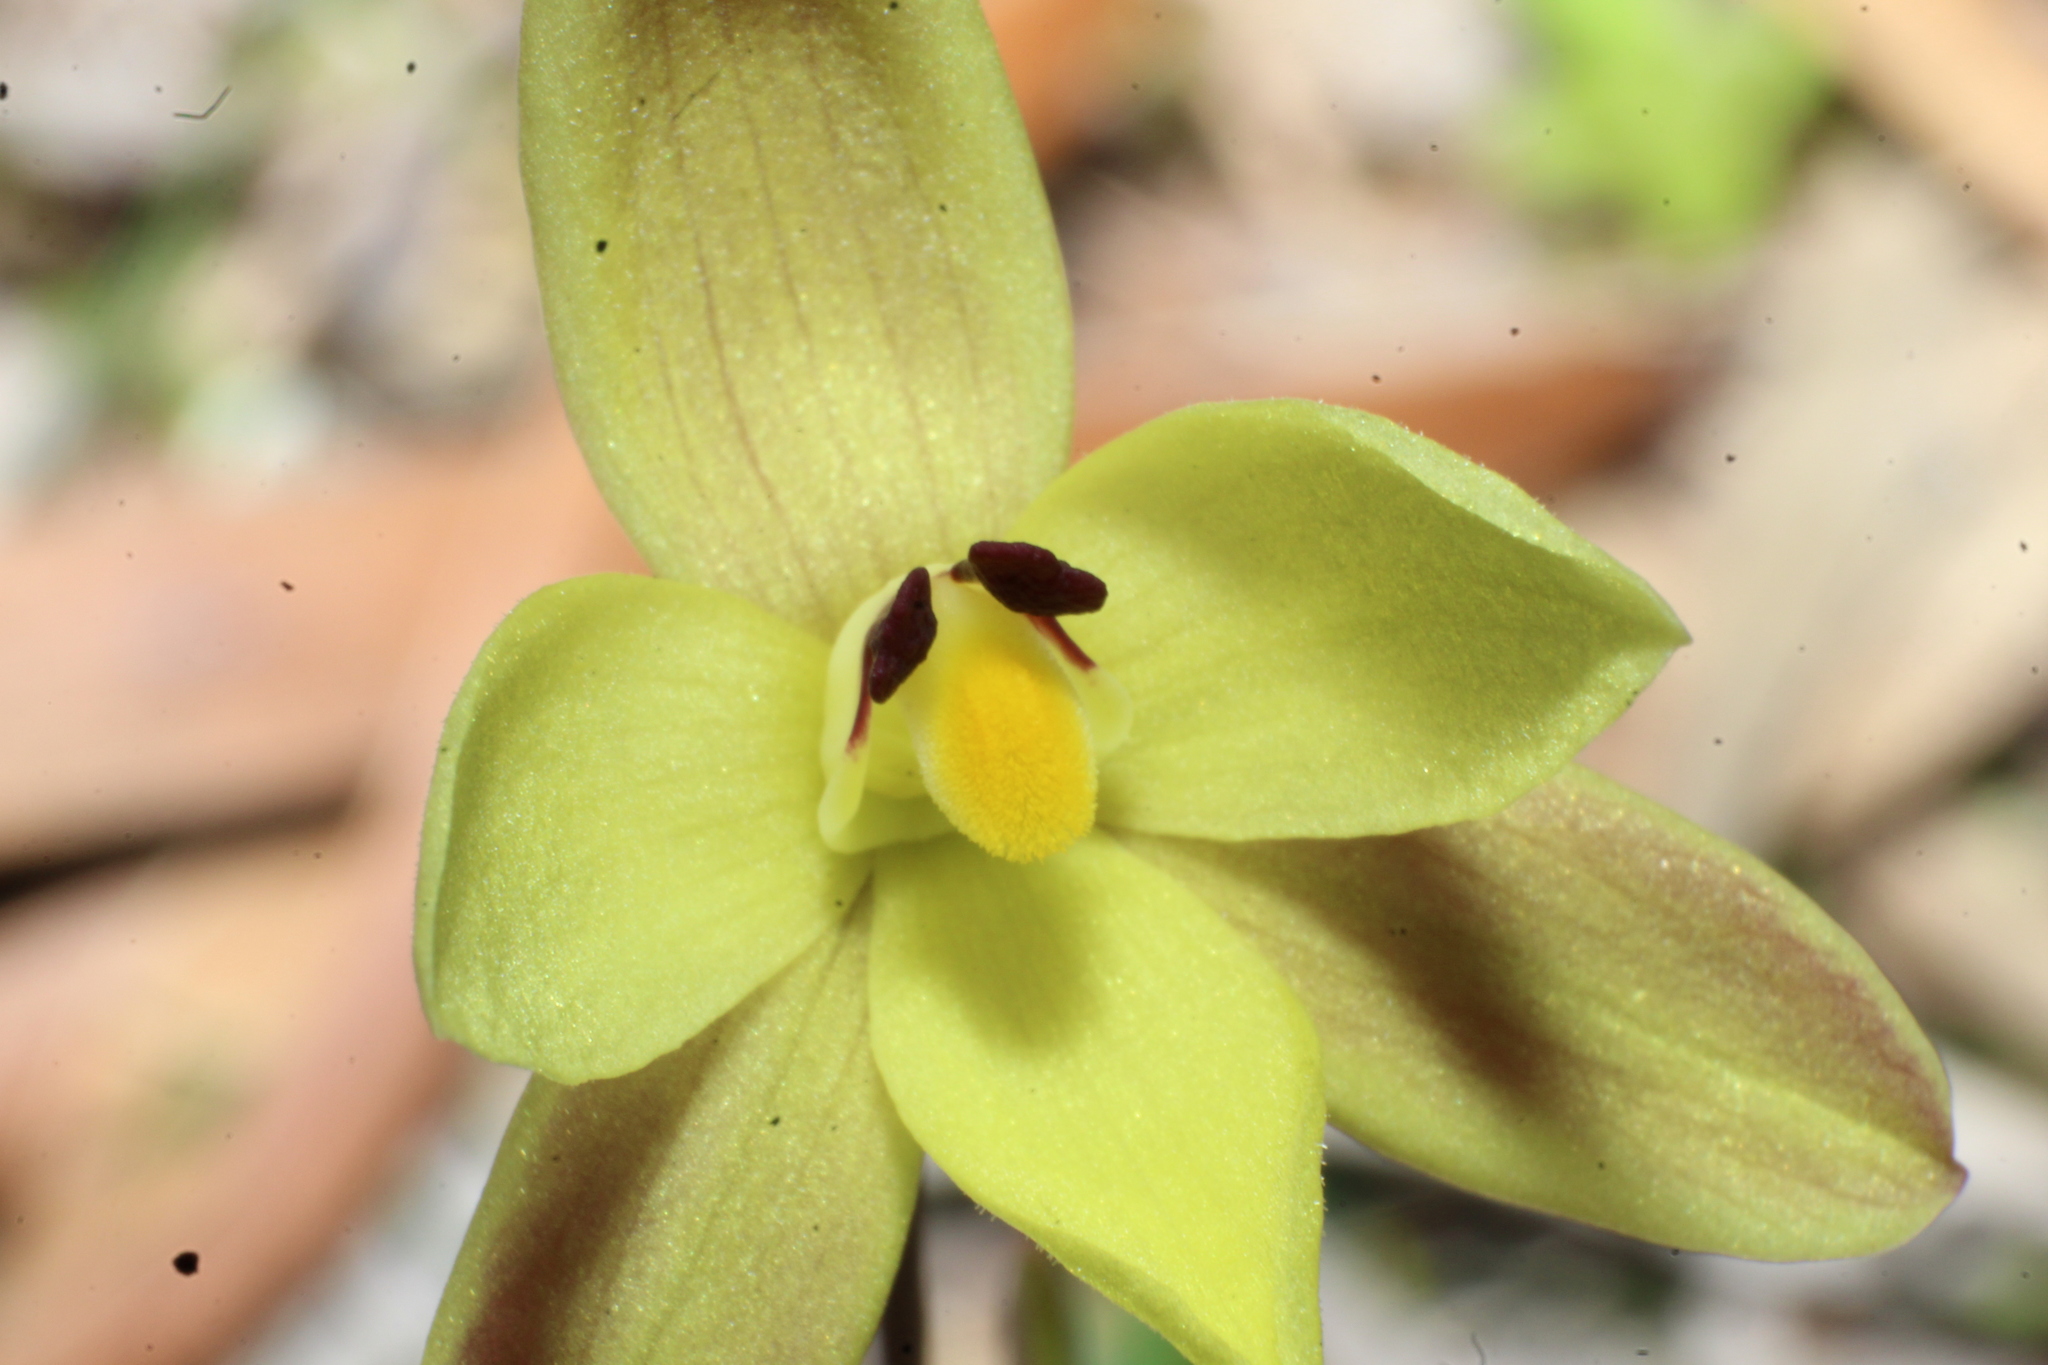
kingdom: Plantae
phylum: Tracheophyta
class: Liliopsida
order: Asparagales
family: Orchidaceae
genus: Thelymitra
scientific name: Thelymitra antennifera
